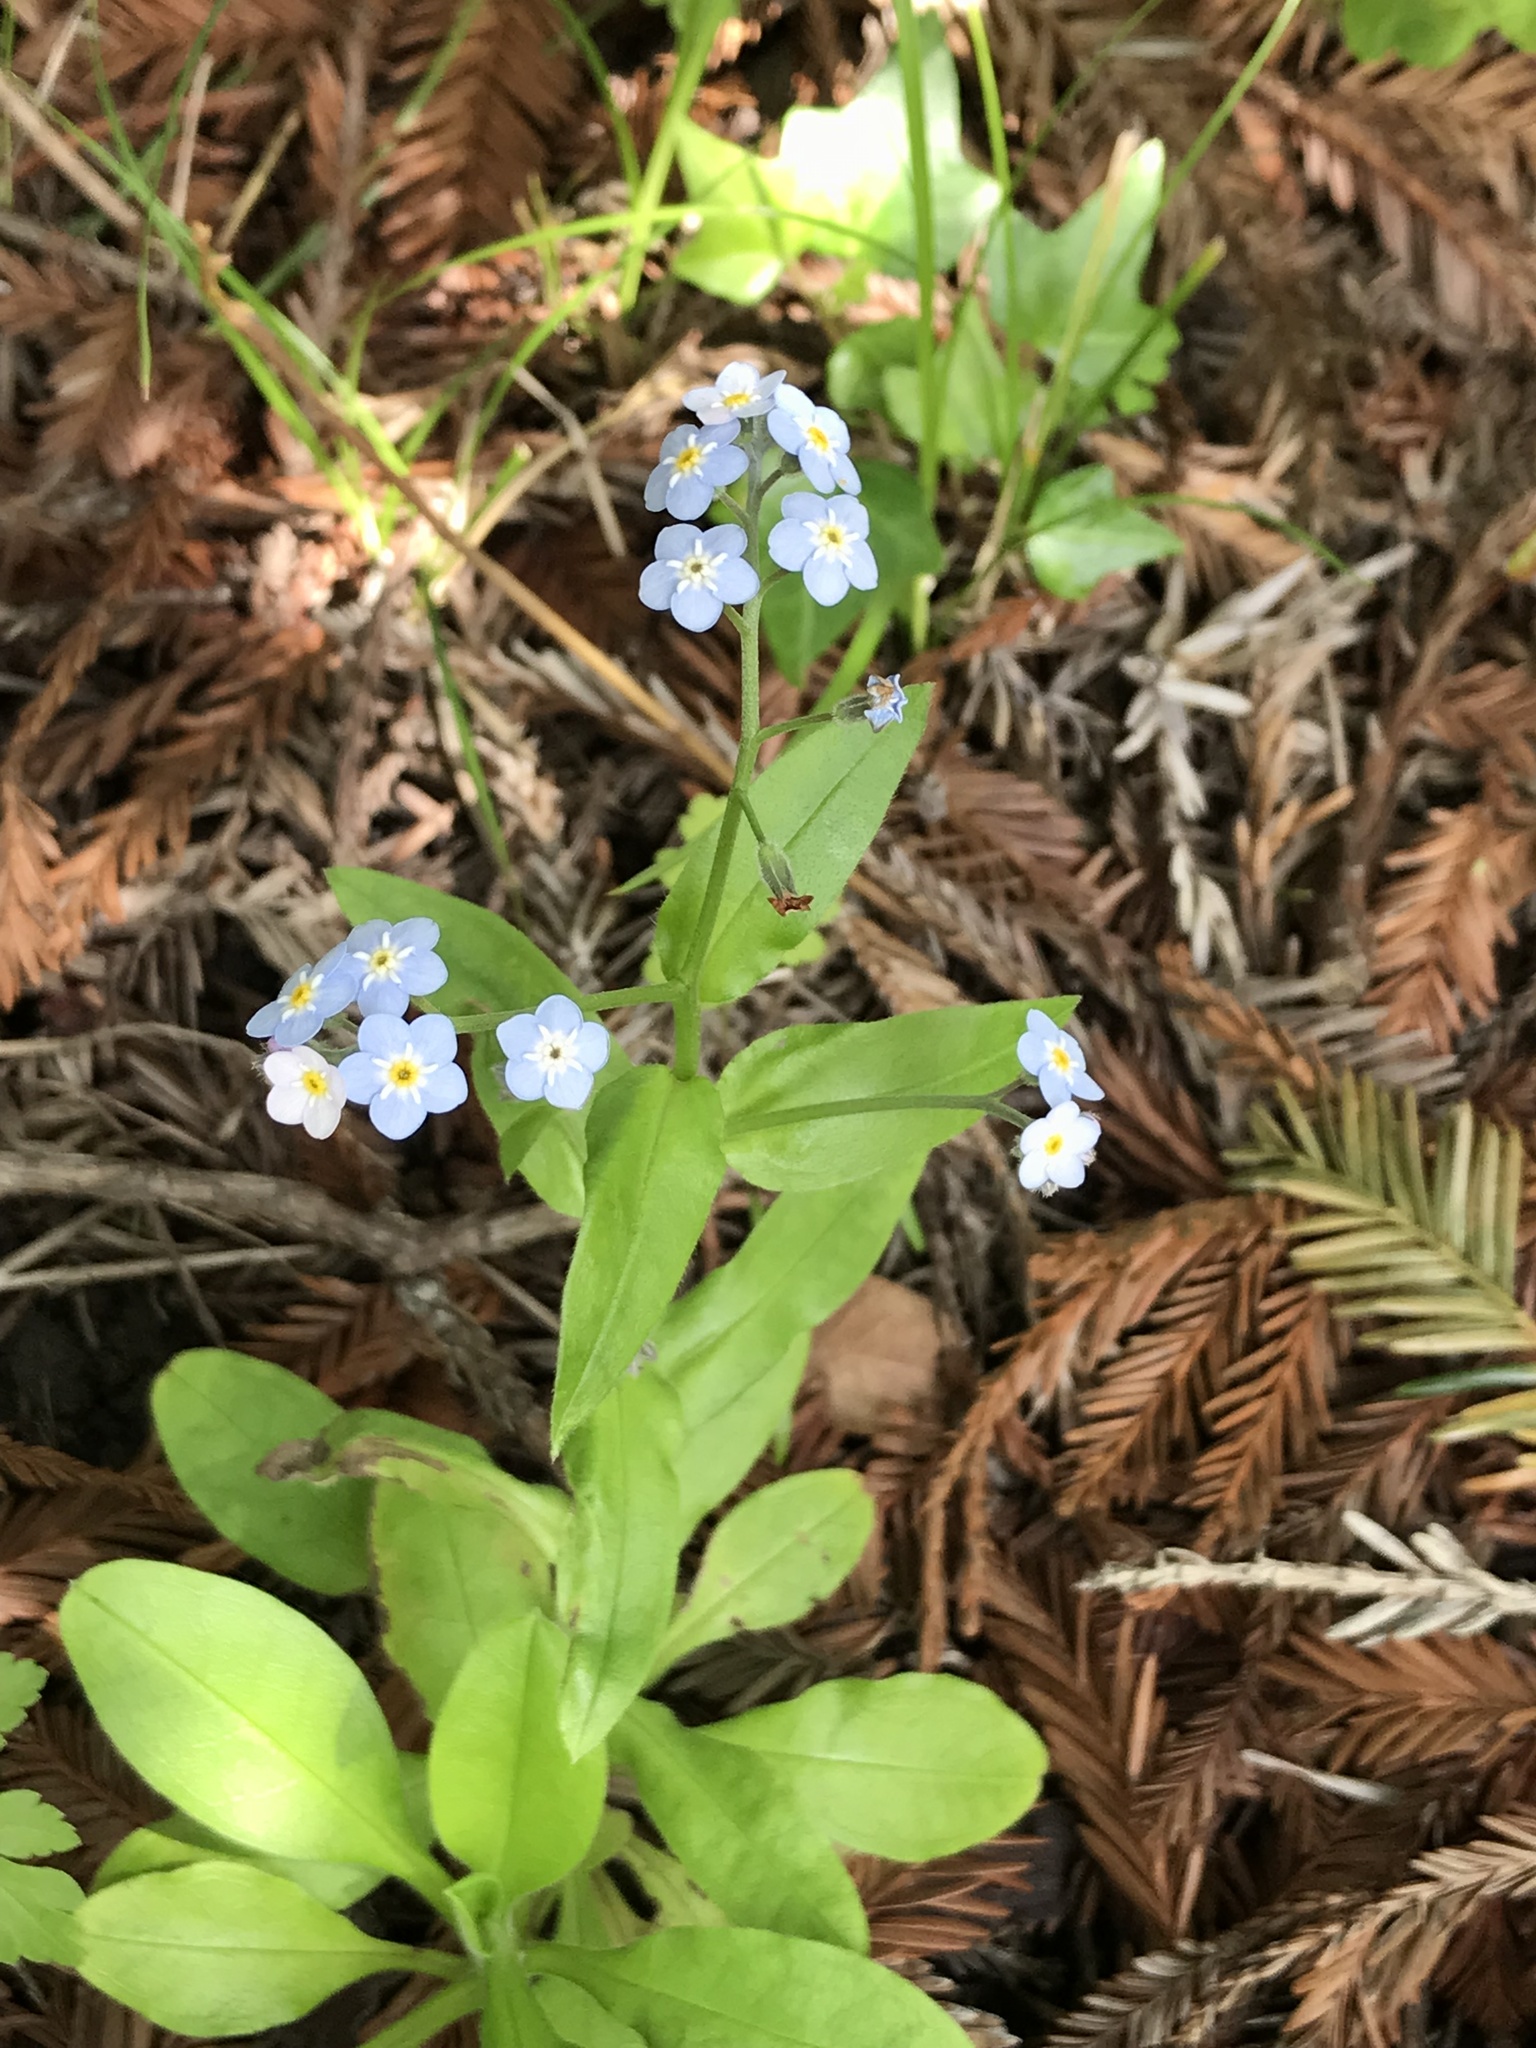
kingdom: Plantae
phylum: Tracheophyta
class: Magnoliopsida
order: Boraginales
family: Boraginaceae
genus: Myosotis
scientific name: Myosotis latifolia
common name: Broadleaf forget-me-not
